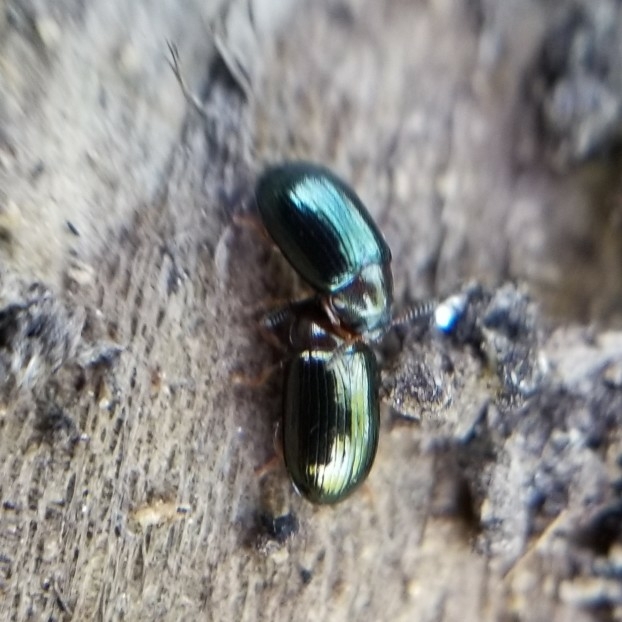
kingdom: Animalia
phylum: Arthropoda
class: Insecta
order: Coleoptera
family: Tenebrionidae
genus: Neomida
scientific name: Neomida bicornis
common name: Two-horned darkling beetle
